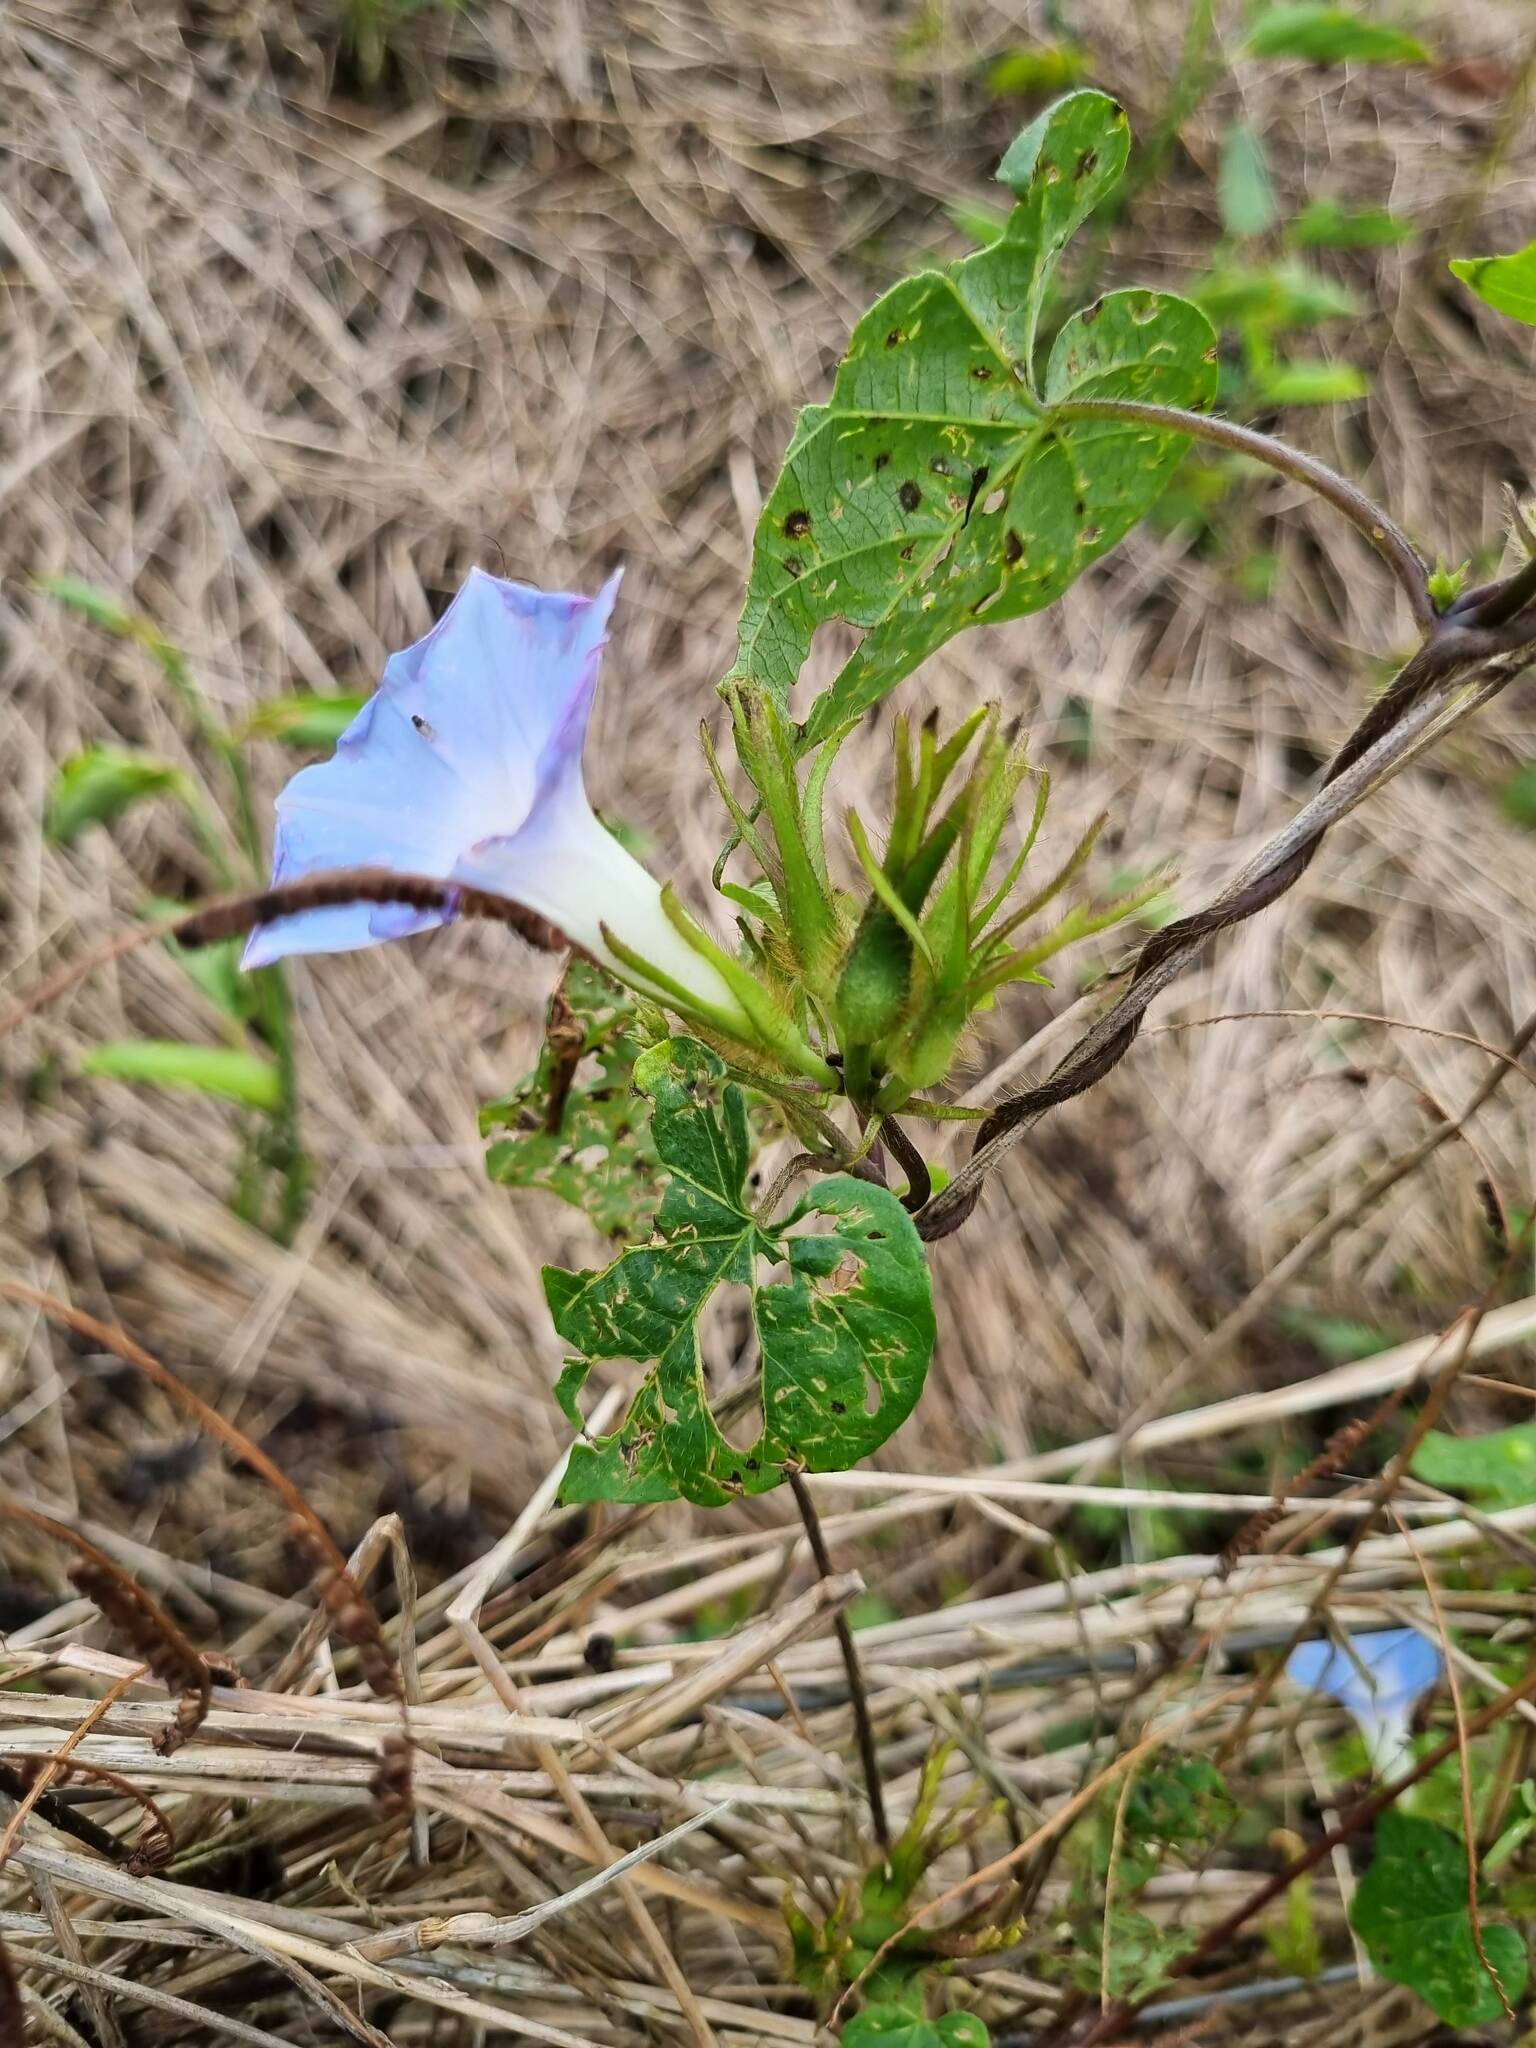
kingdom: Plantae
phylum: Tracheophyta
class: Magnoliopsida
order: Solanales
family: Convolvulaceae
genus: Ipomoea
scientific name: Ipomoea nil
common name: Japanese morning-glory
